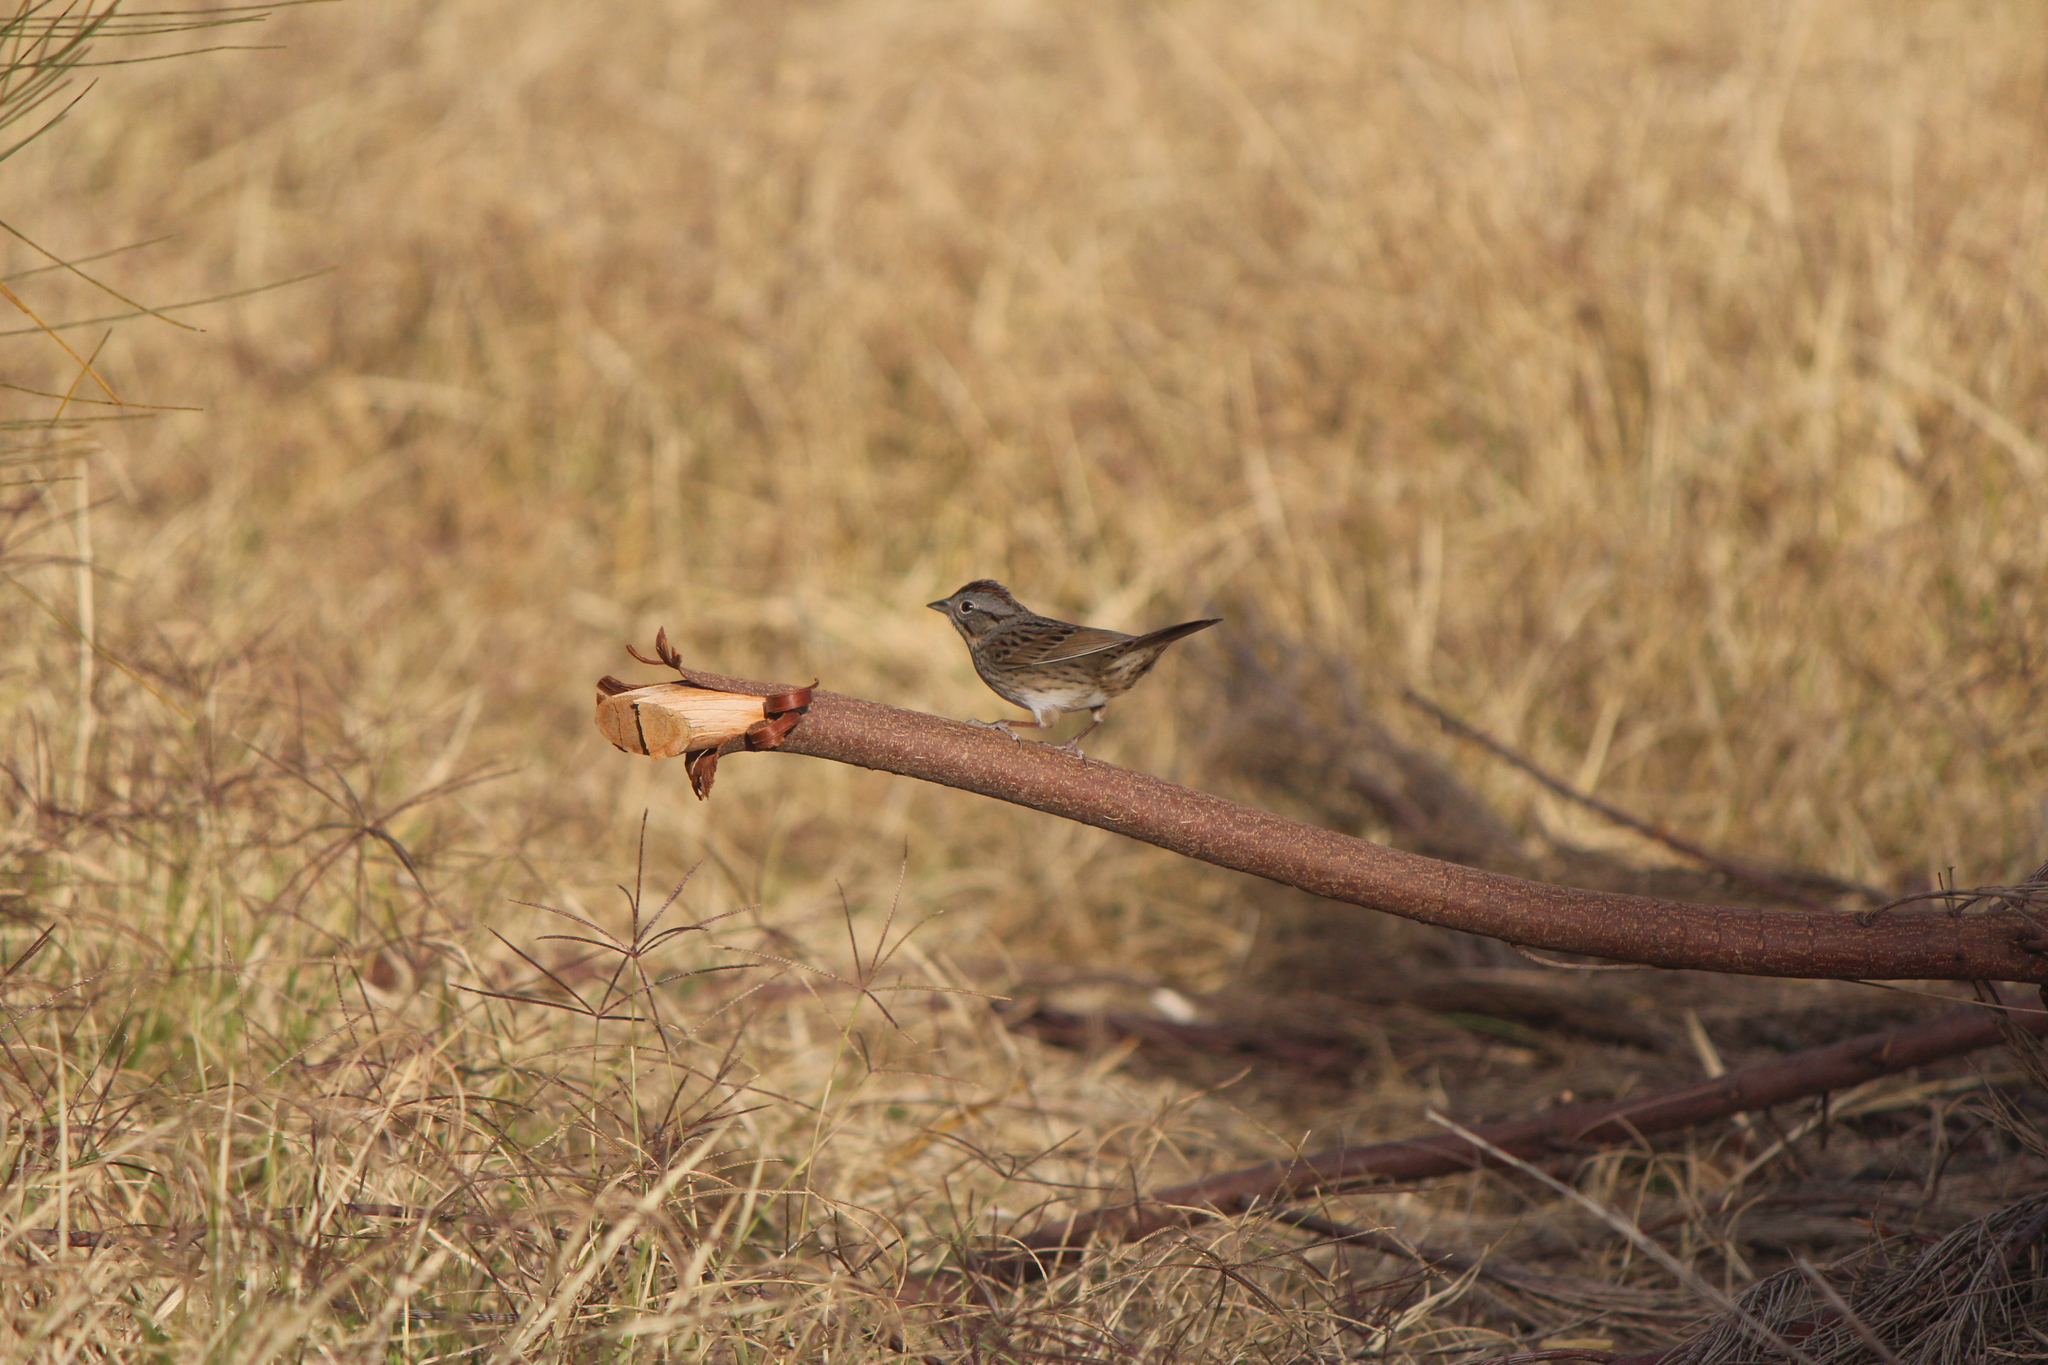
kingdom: Animalia
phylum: Chordata
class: Aves
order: Passeriformes
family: Passerellidae
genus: Melospiza
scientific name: Melospiza lincolnii
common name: Lincoln's sparrow
